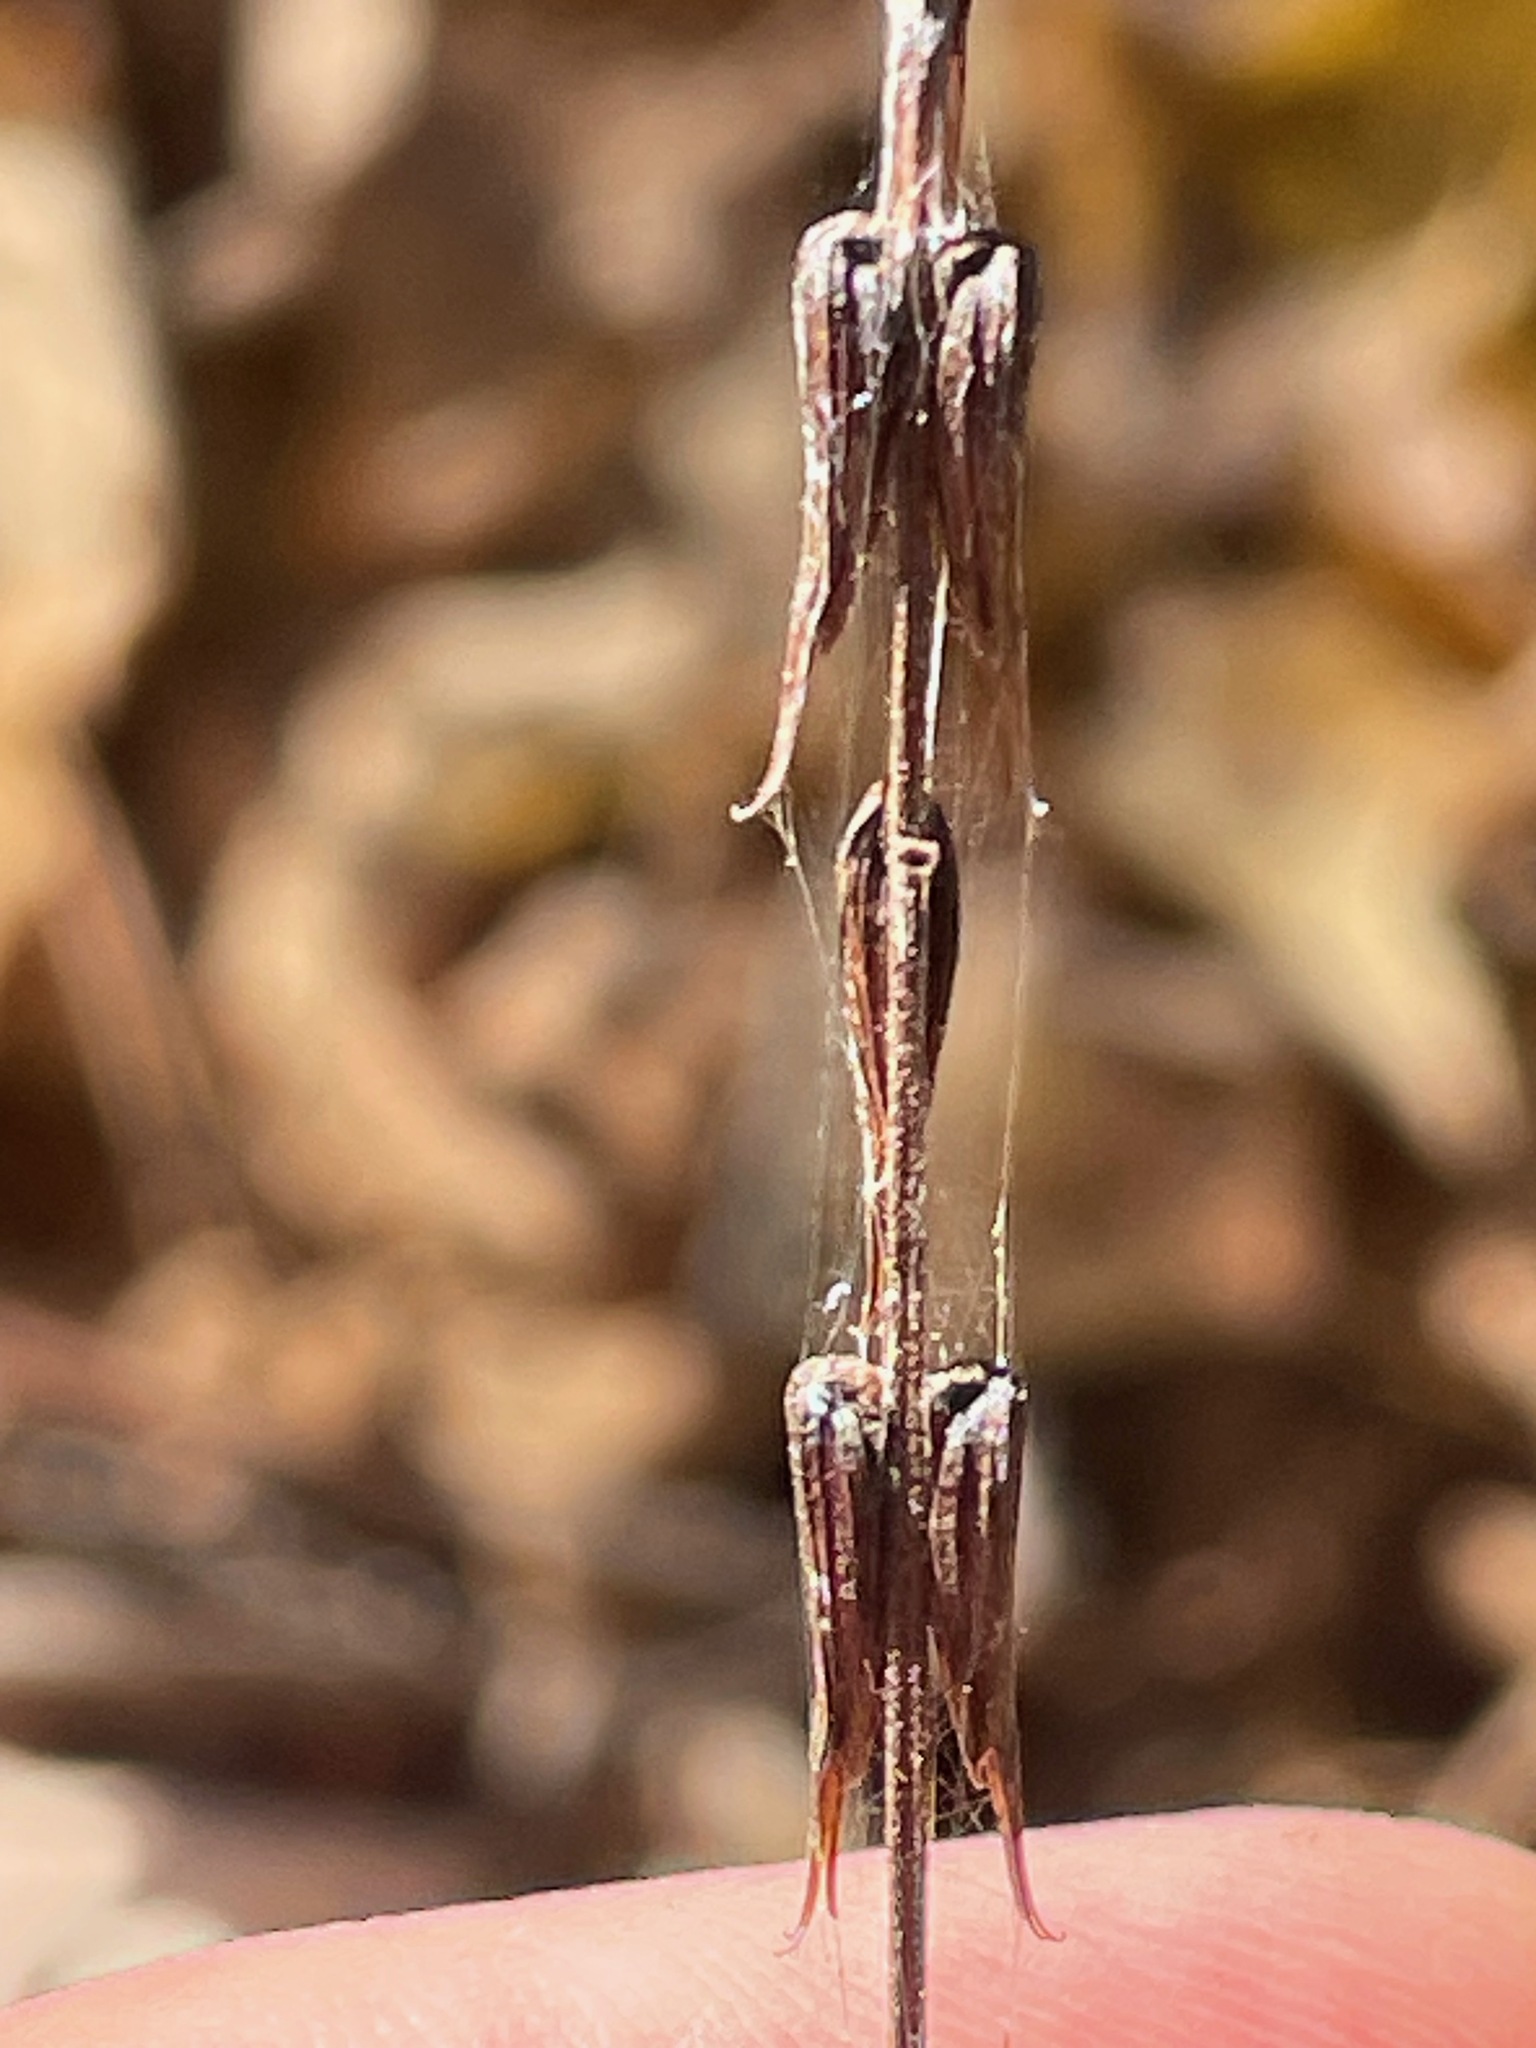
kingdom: Plantae
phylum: Tracheophyta
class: Magnoliopsida
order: Lamiales
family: Phrymaceae
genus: Phryma
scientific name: Phryma leptostachya
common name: American lopseed
